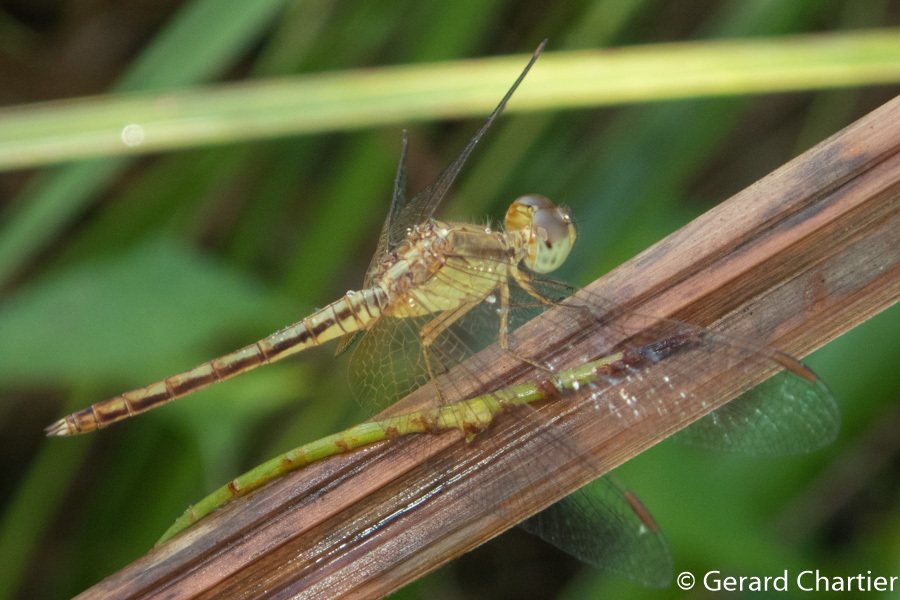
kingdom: Animalia
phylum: Arthropoda
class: Insecta
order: Odonata
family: Libellulidae
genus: Neurothemis
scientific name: Neurothemis intermedia
